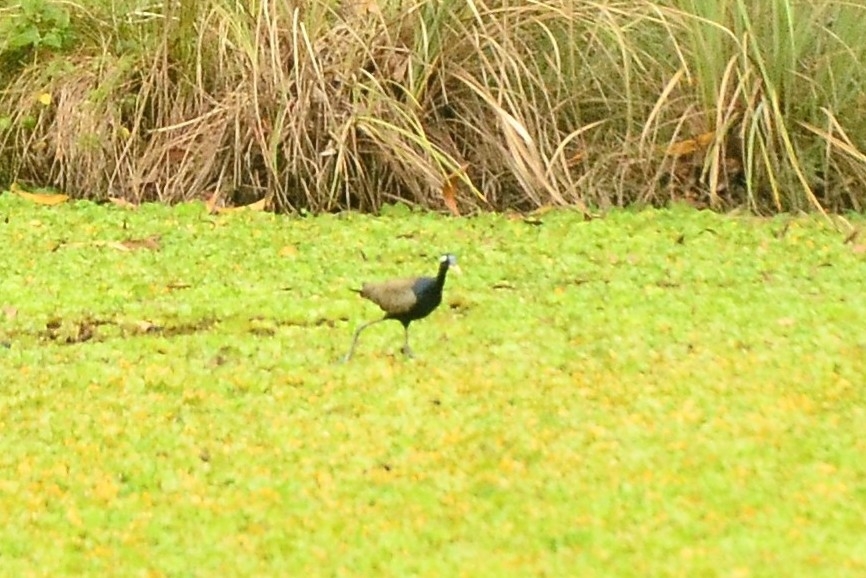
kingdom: Animalia
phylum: Chordata
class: Aves
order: Charadriiformes
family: Jacanidae
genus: Metopidius
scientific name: Metopidius indicus
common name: Bronze-winged jacana
